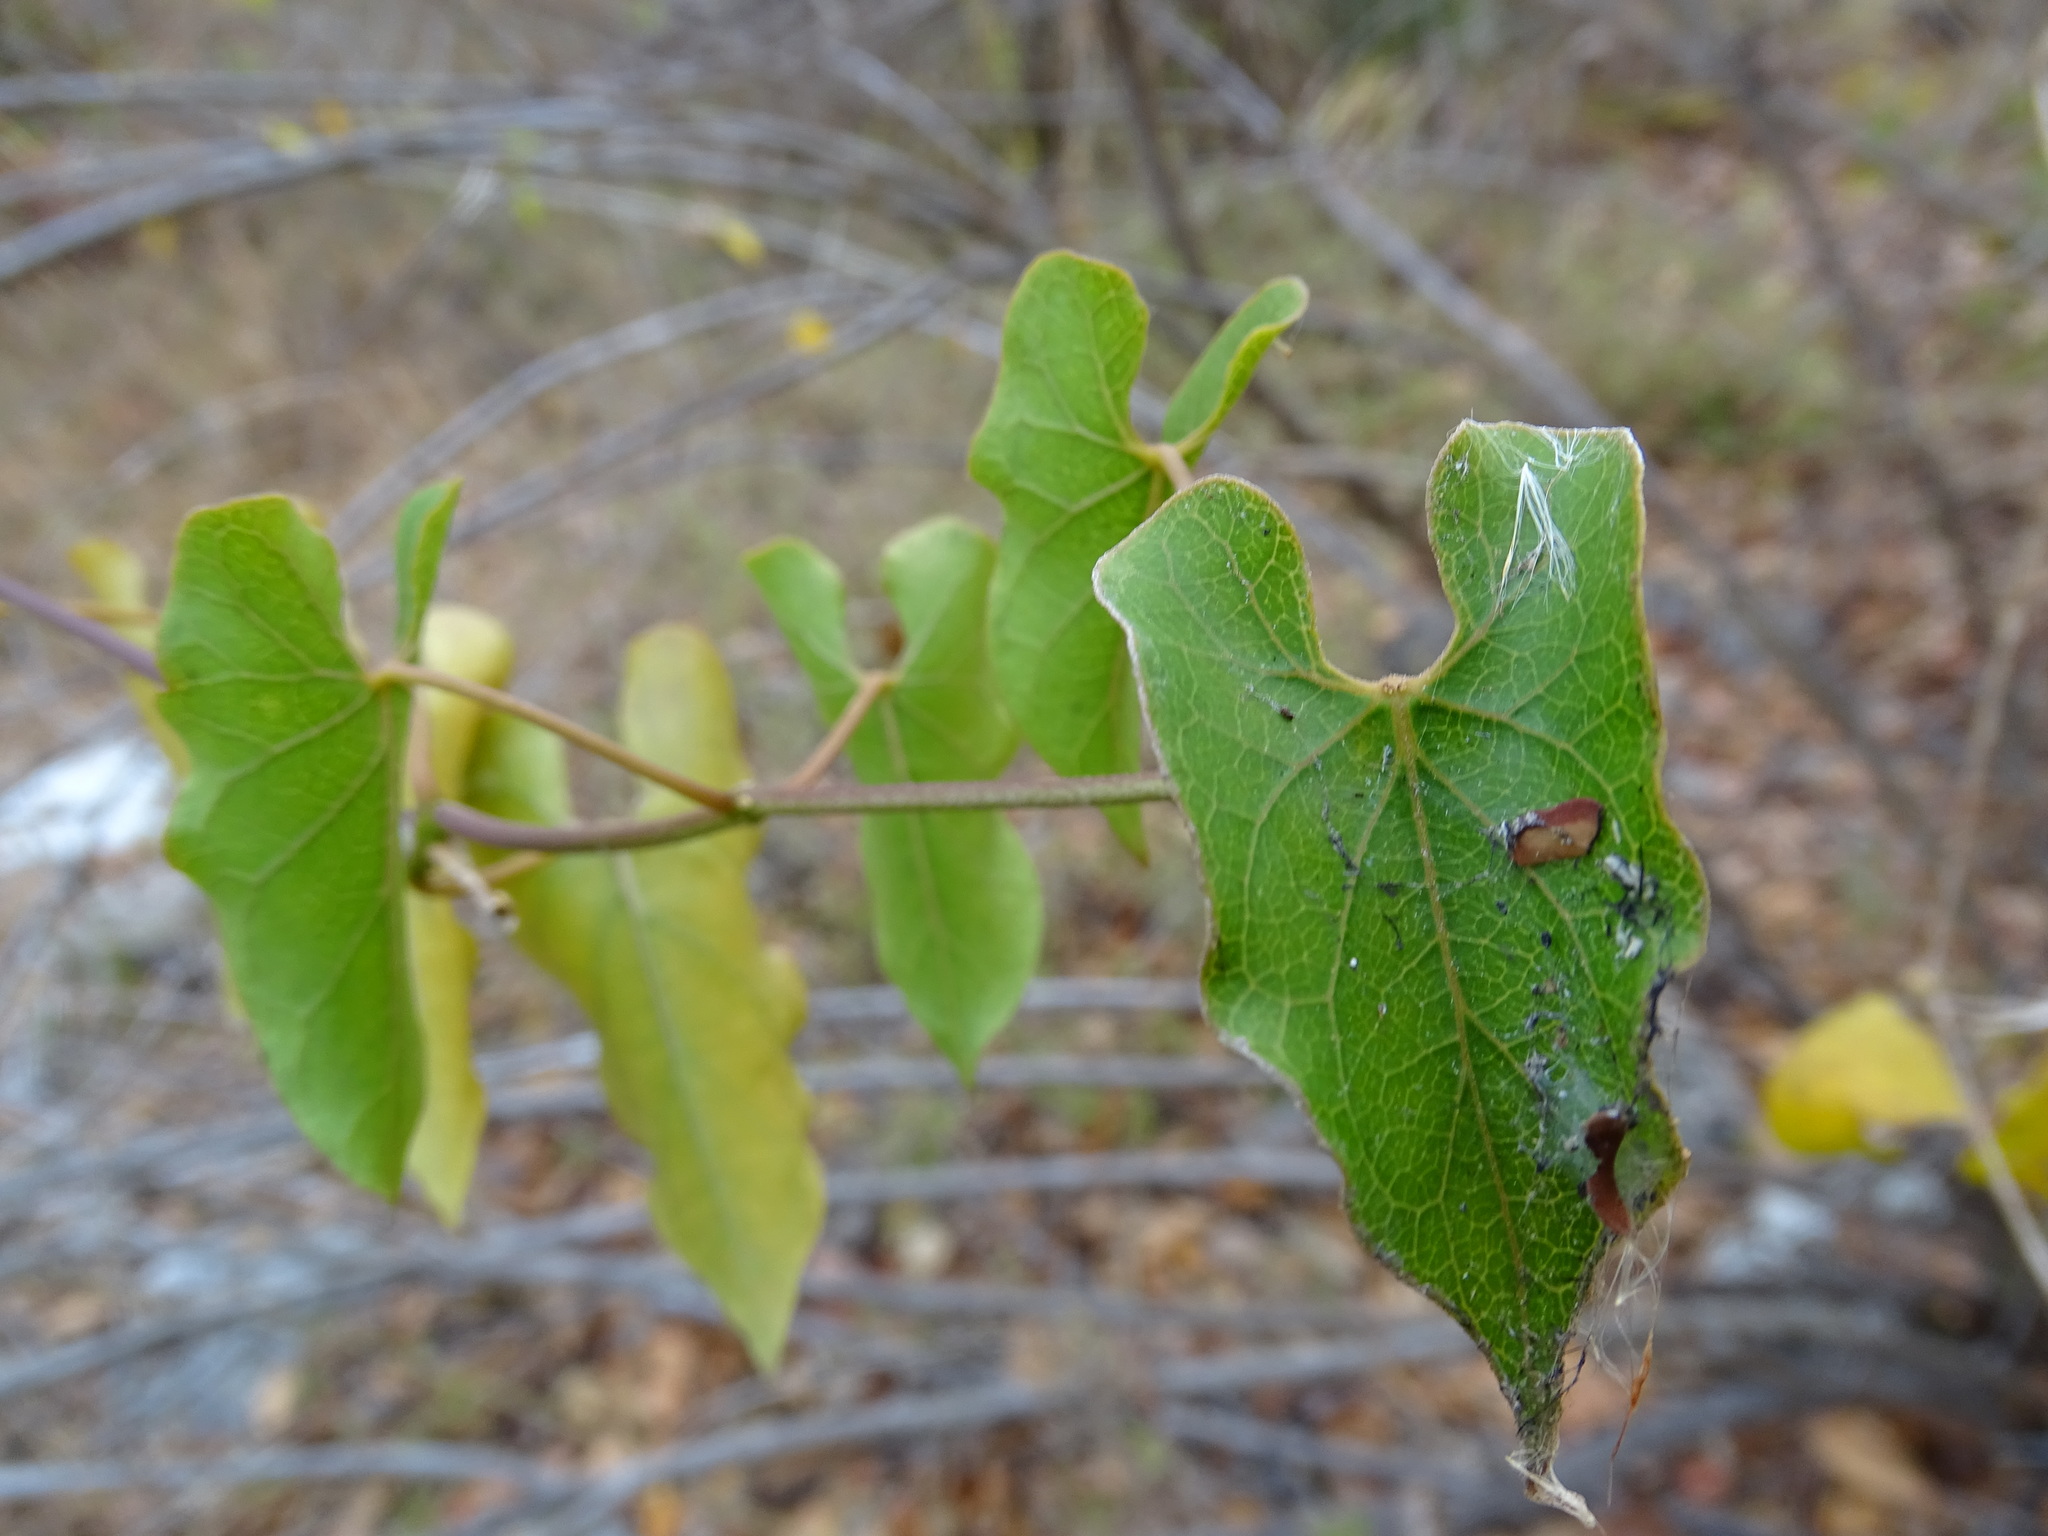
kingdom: Plantae
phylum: Tracheophyta
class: Magnoliopsida
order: Gentianales
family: Apocynaceae
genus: Gonolobus
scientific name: Gonolobus cteniophorus
